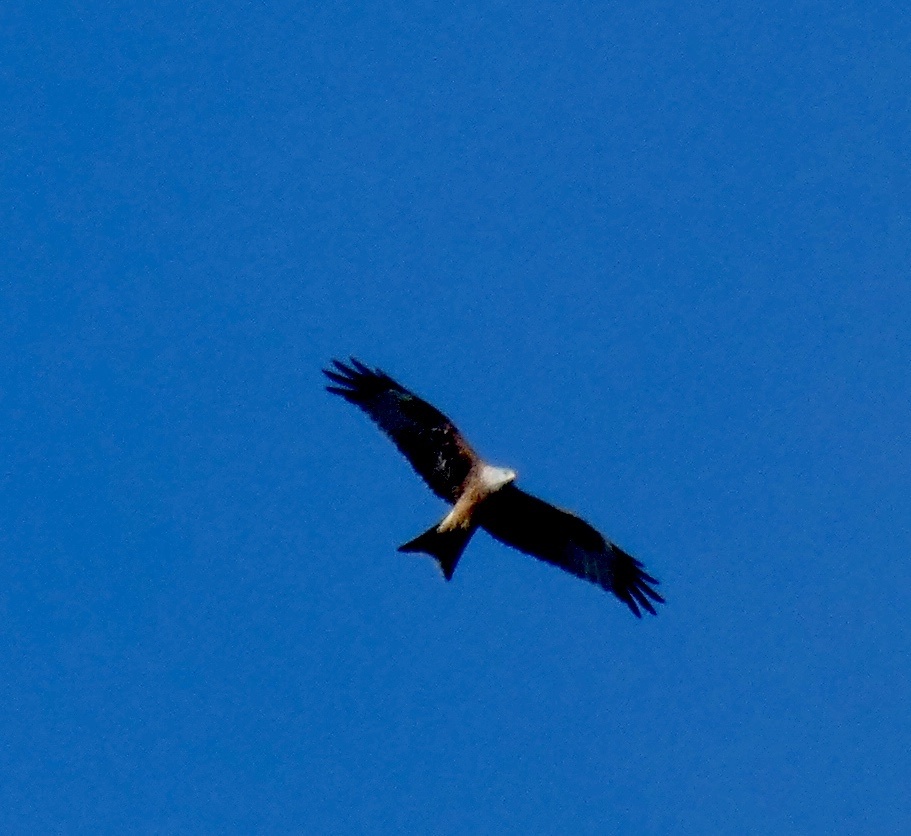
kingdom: Animalia
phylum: Chordata
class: Aves
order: Accipitriformes
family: Accipitridae
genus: Milvus
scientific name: Milvus milvus
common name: Red kite
